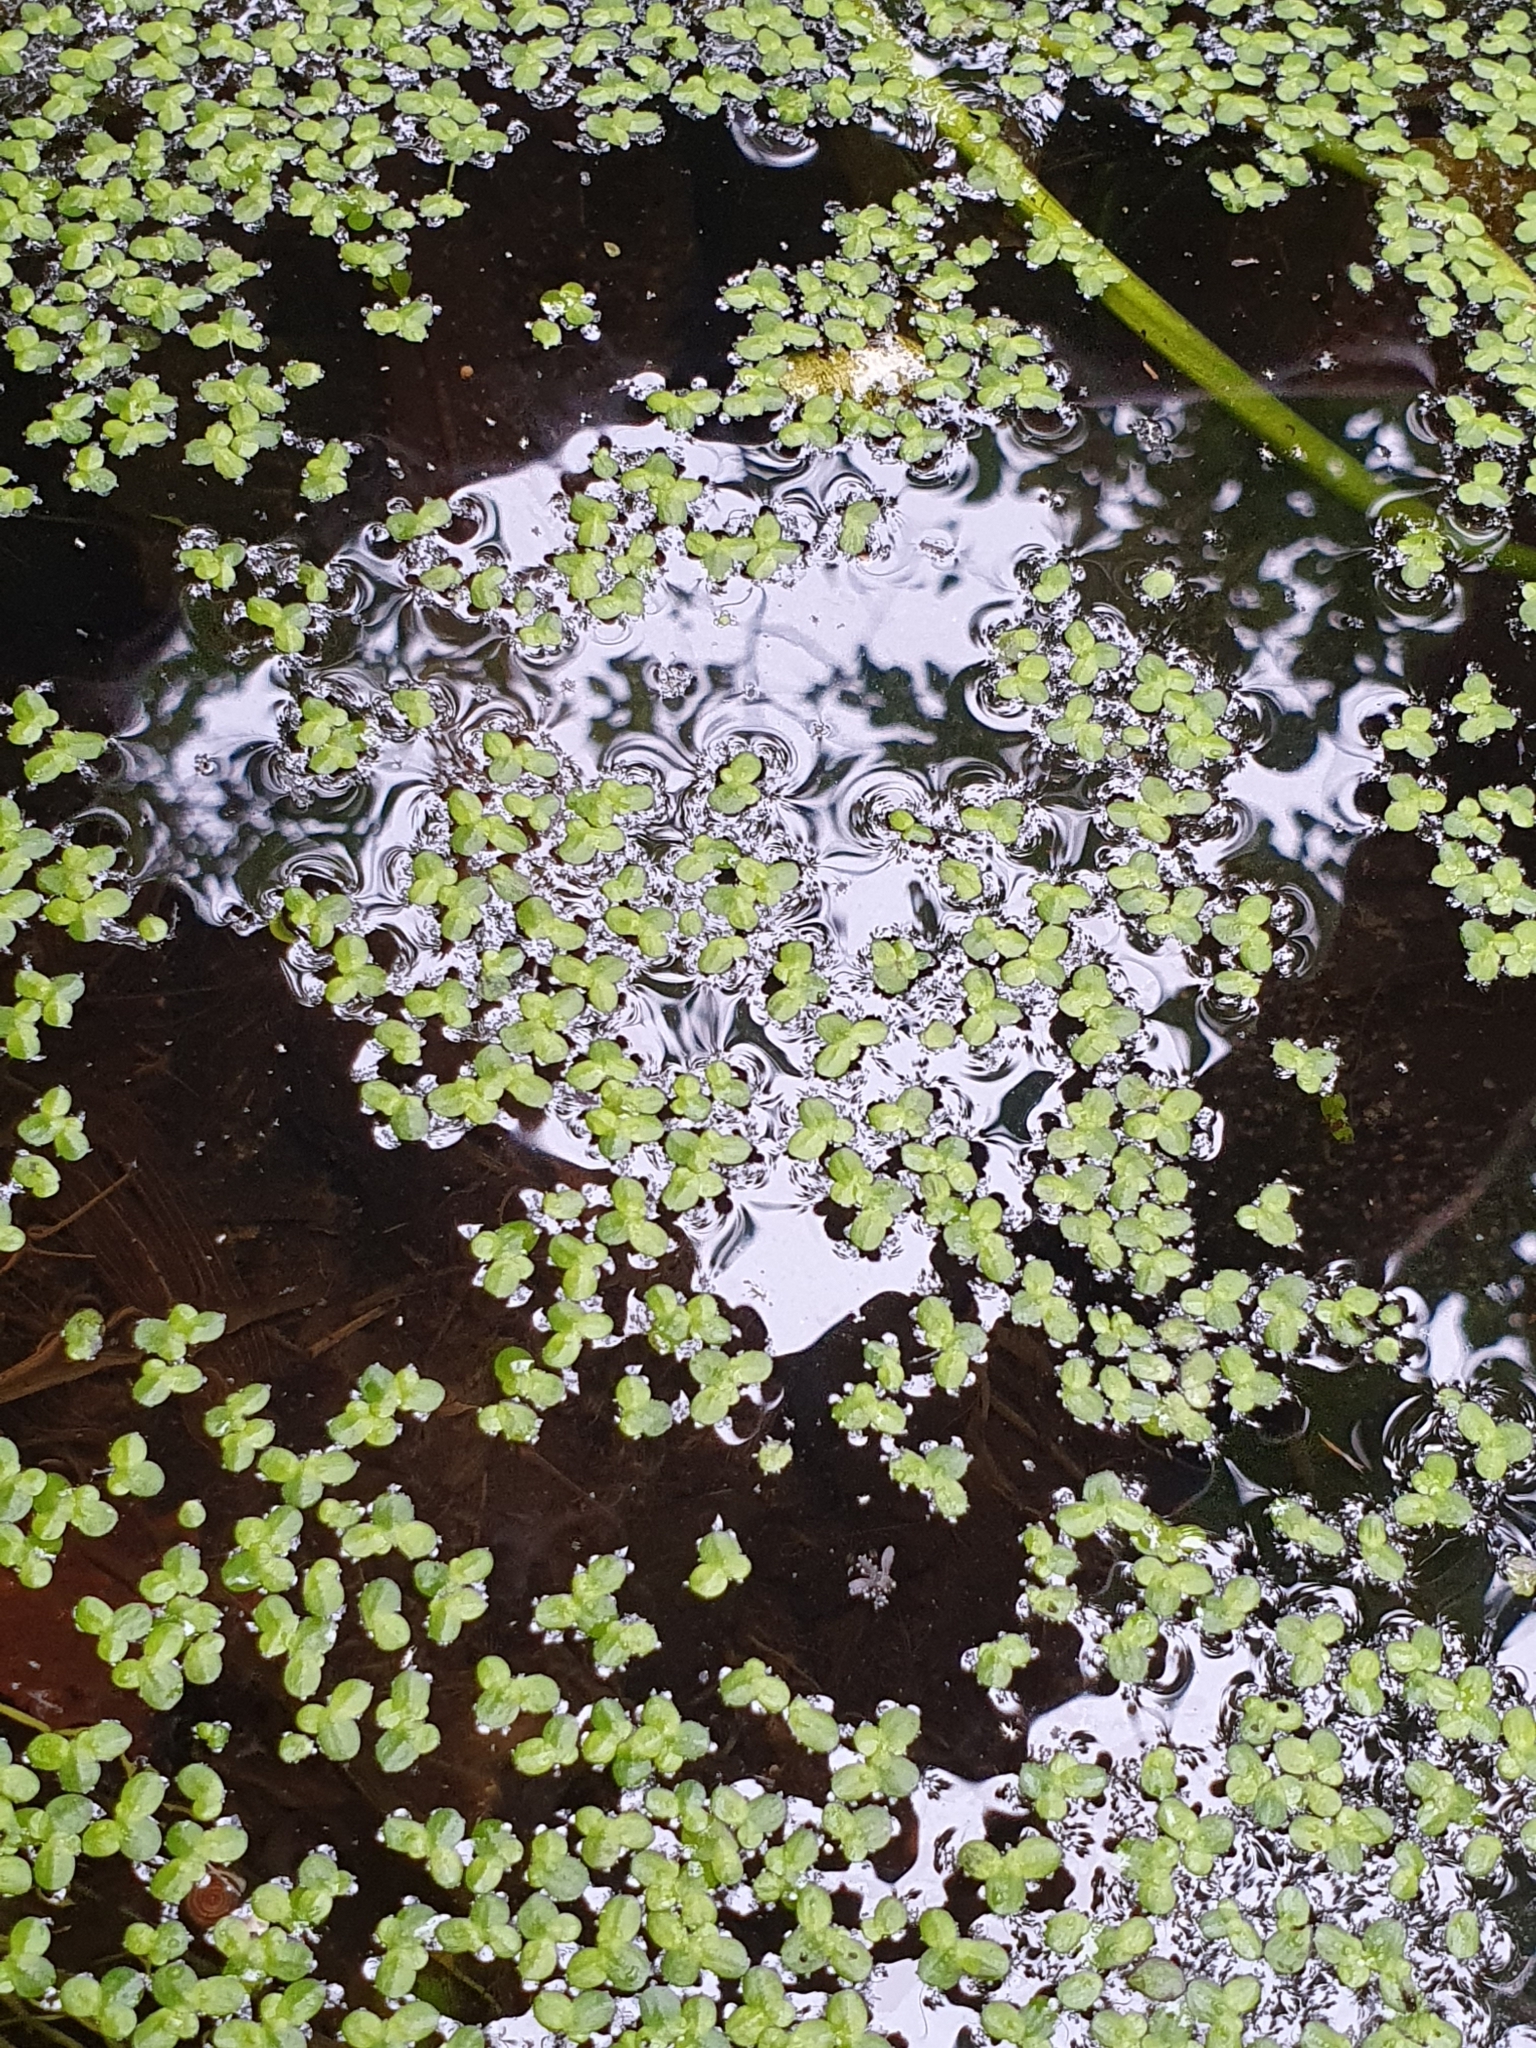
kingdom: Plantae
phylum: Tracheophyta
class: Liliopsida
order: Alismatales
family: Araceae
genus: Lemna
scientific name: Lemna minor
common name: Common duckweed
